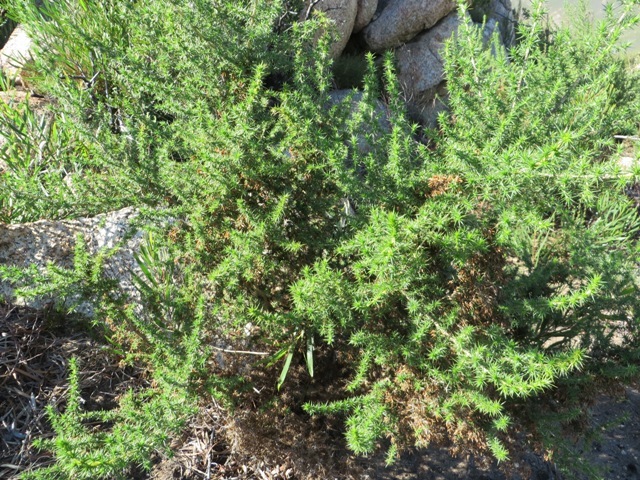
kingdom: Plantae
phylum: Tracheophyta
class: Magnoliopsida
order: Fabales
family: Fabaceae
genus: Aspalathus
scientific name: Aspalathus astroites
